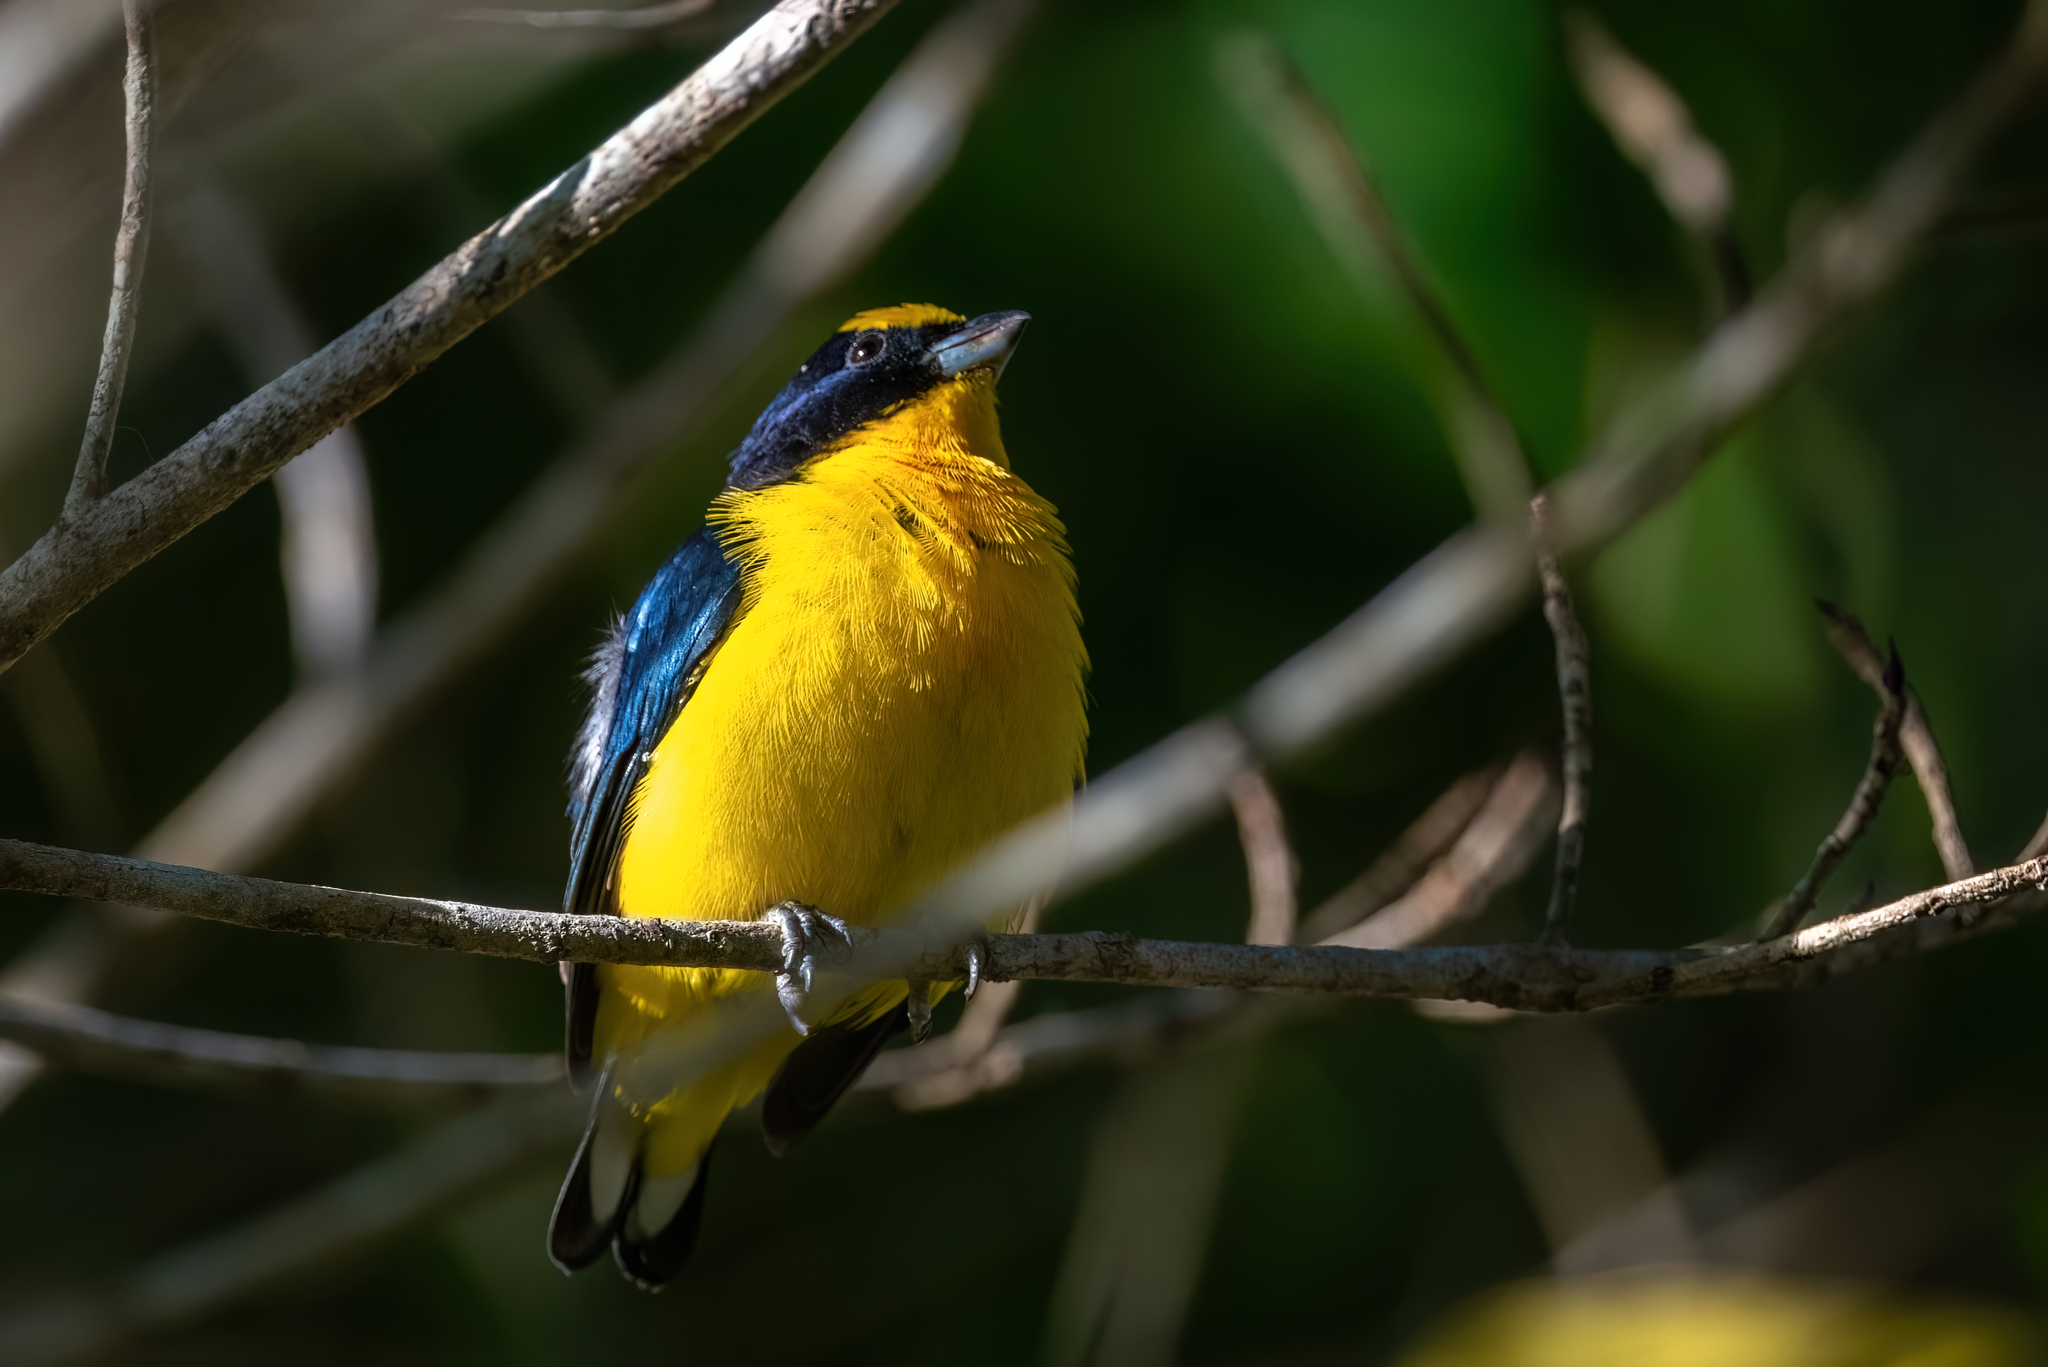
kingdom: Animalia
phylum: Chordata
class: Aves
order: Passeriformes
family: Fringillidae
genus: Euphonia
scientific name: Euphonia laniirostris
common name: Thick-billed euphonia
